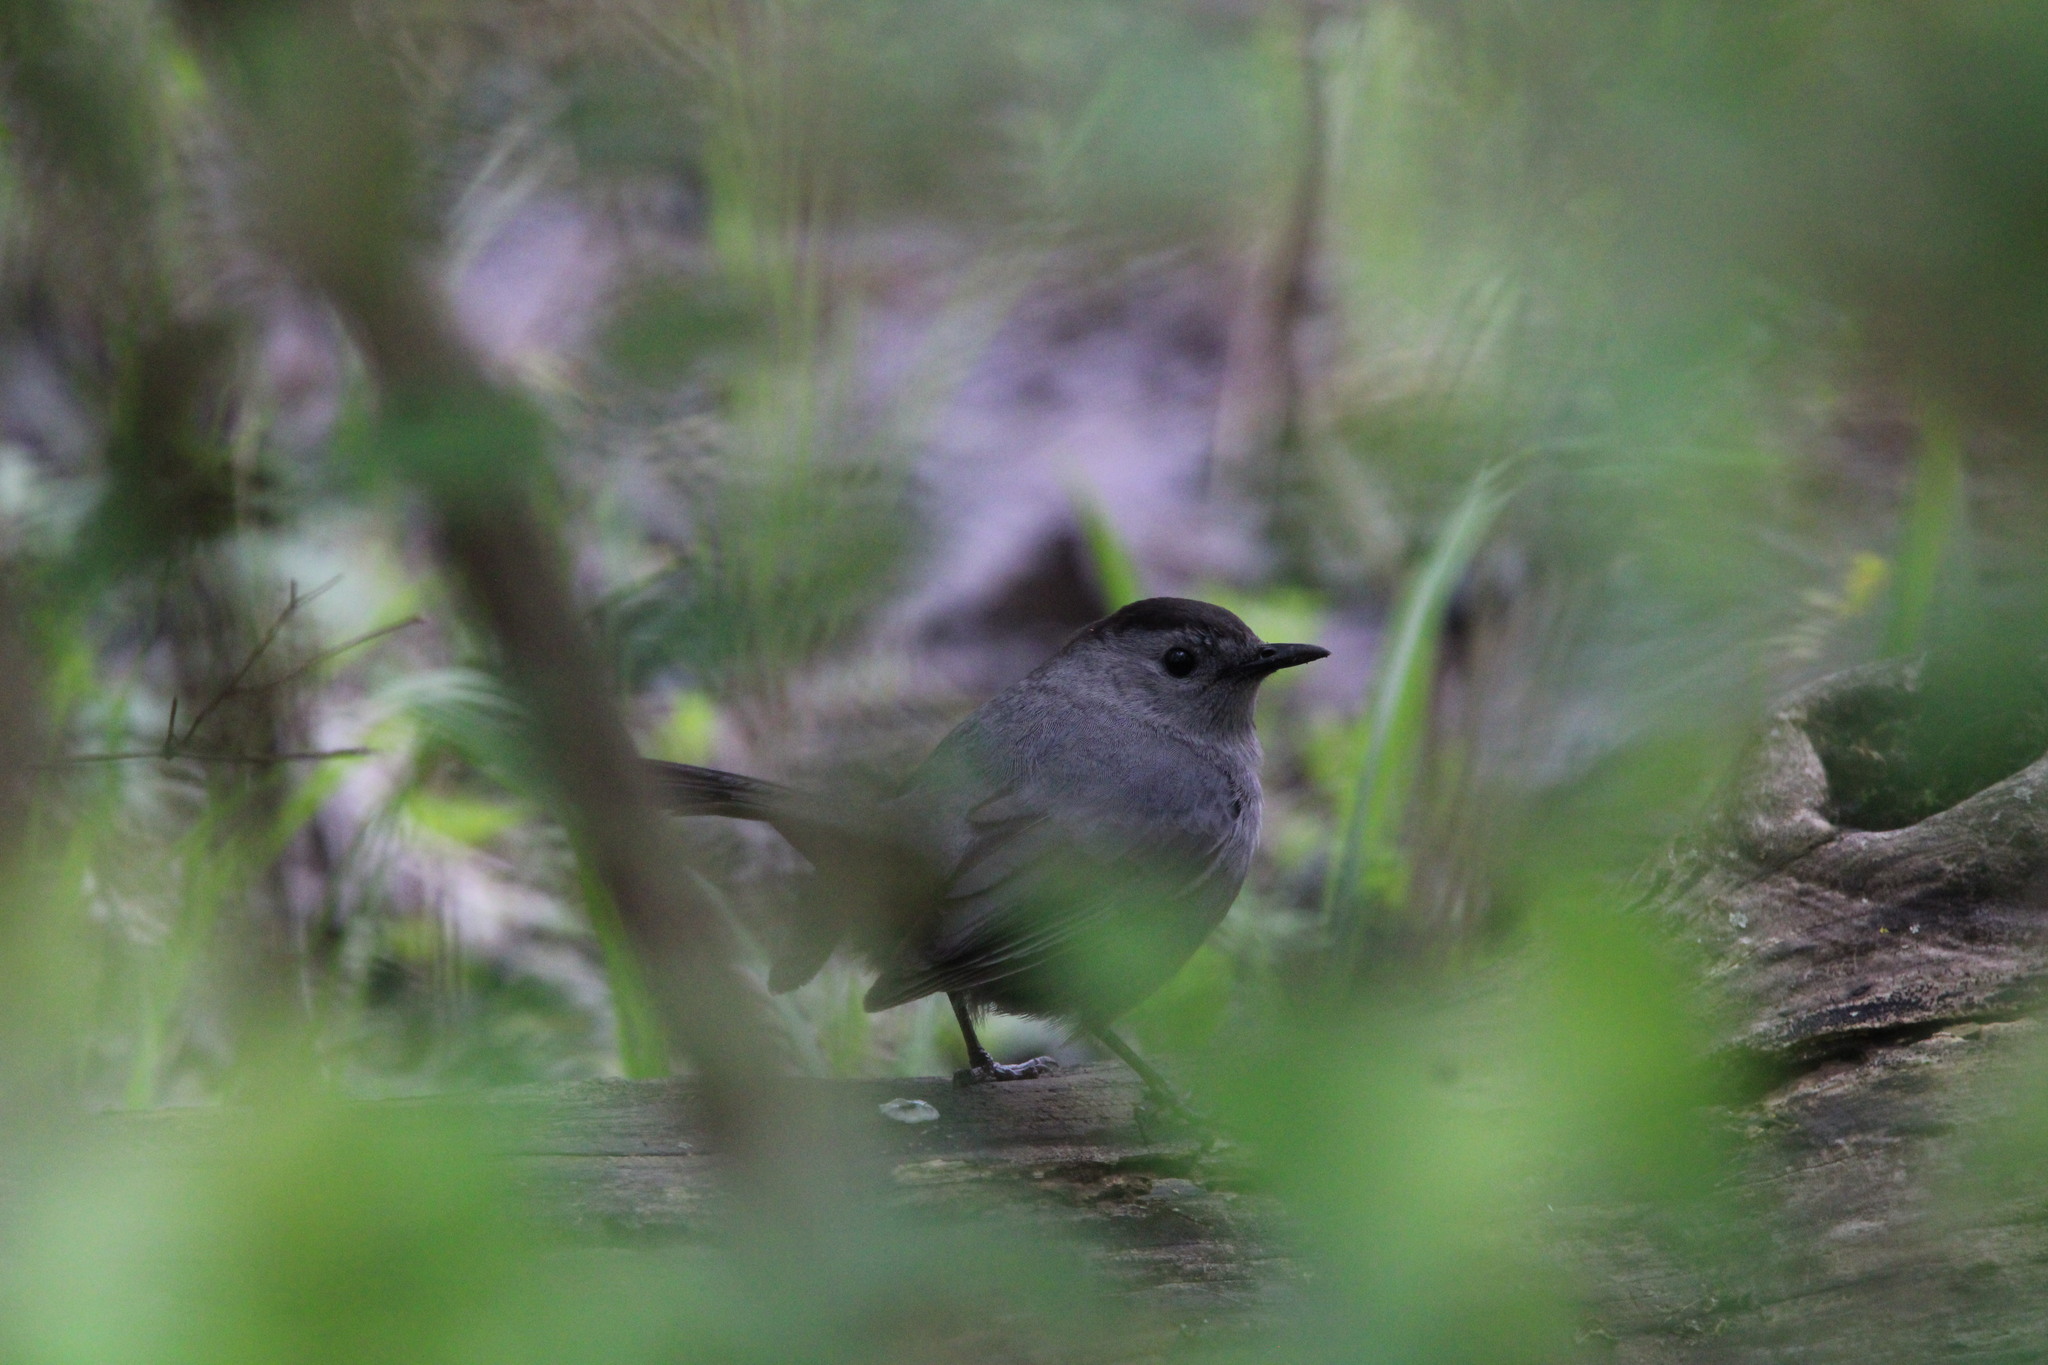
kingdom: Animalia
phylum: Chordata
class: Aves
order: Passeriformes
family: Mimidae
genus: Dumetella
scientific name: Dumetella carolinensis
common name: Gray catbird
